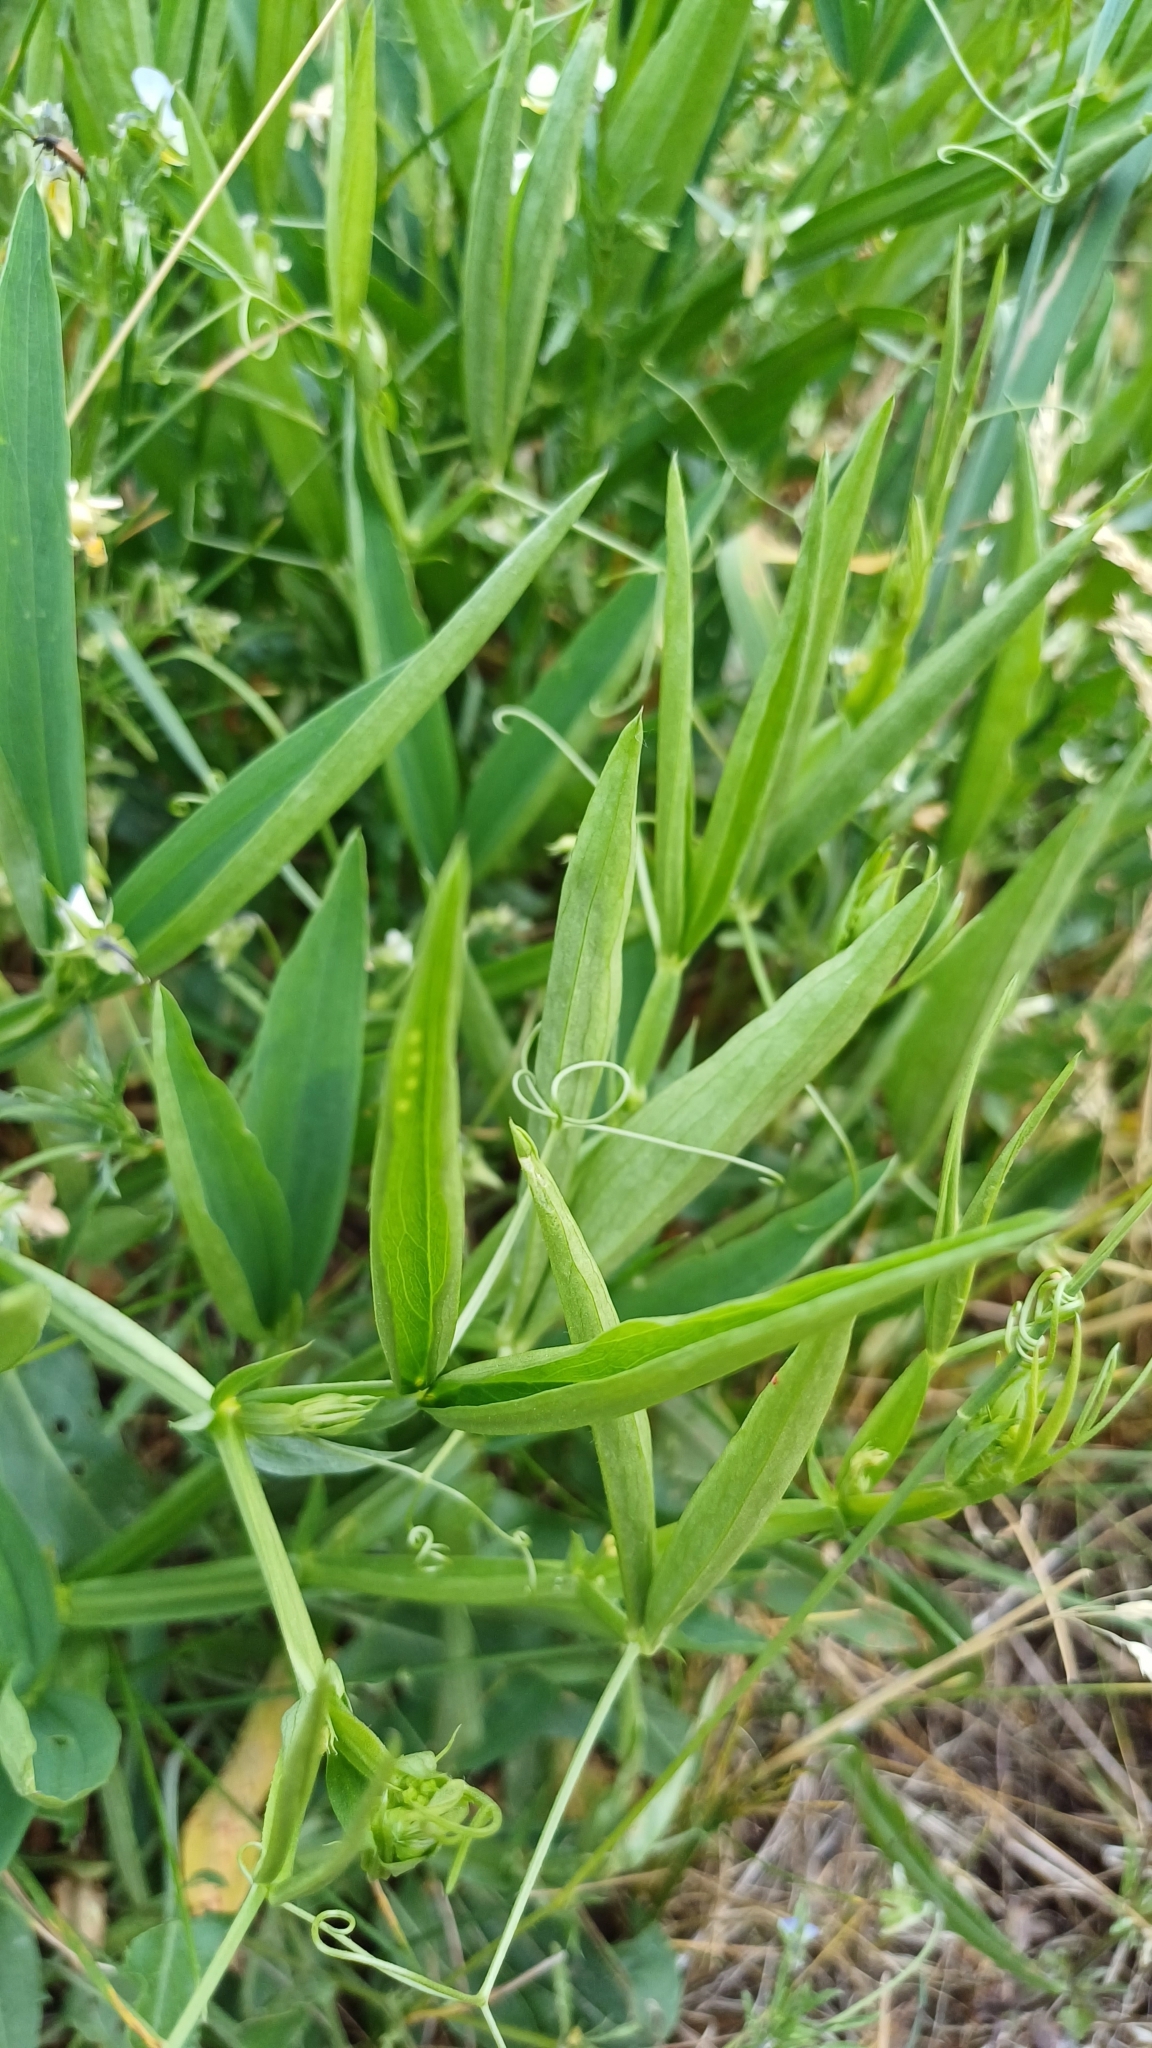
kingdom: Plantae
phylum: Tracheophyta
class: Magnoliopsida
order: Fabales
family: Fabaceae
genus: Lathyrus
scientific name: Lathyrus sylvestris
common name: Flat pea
